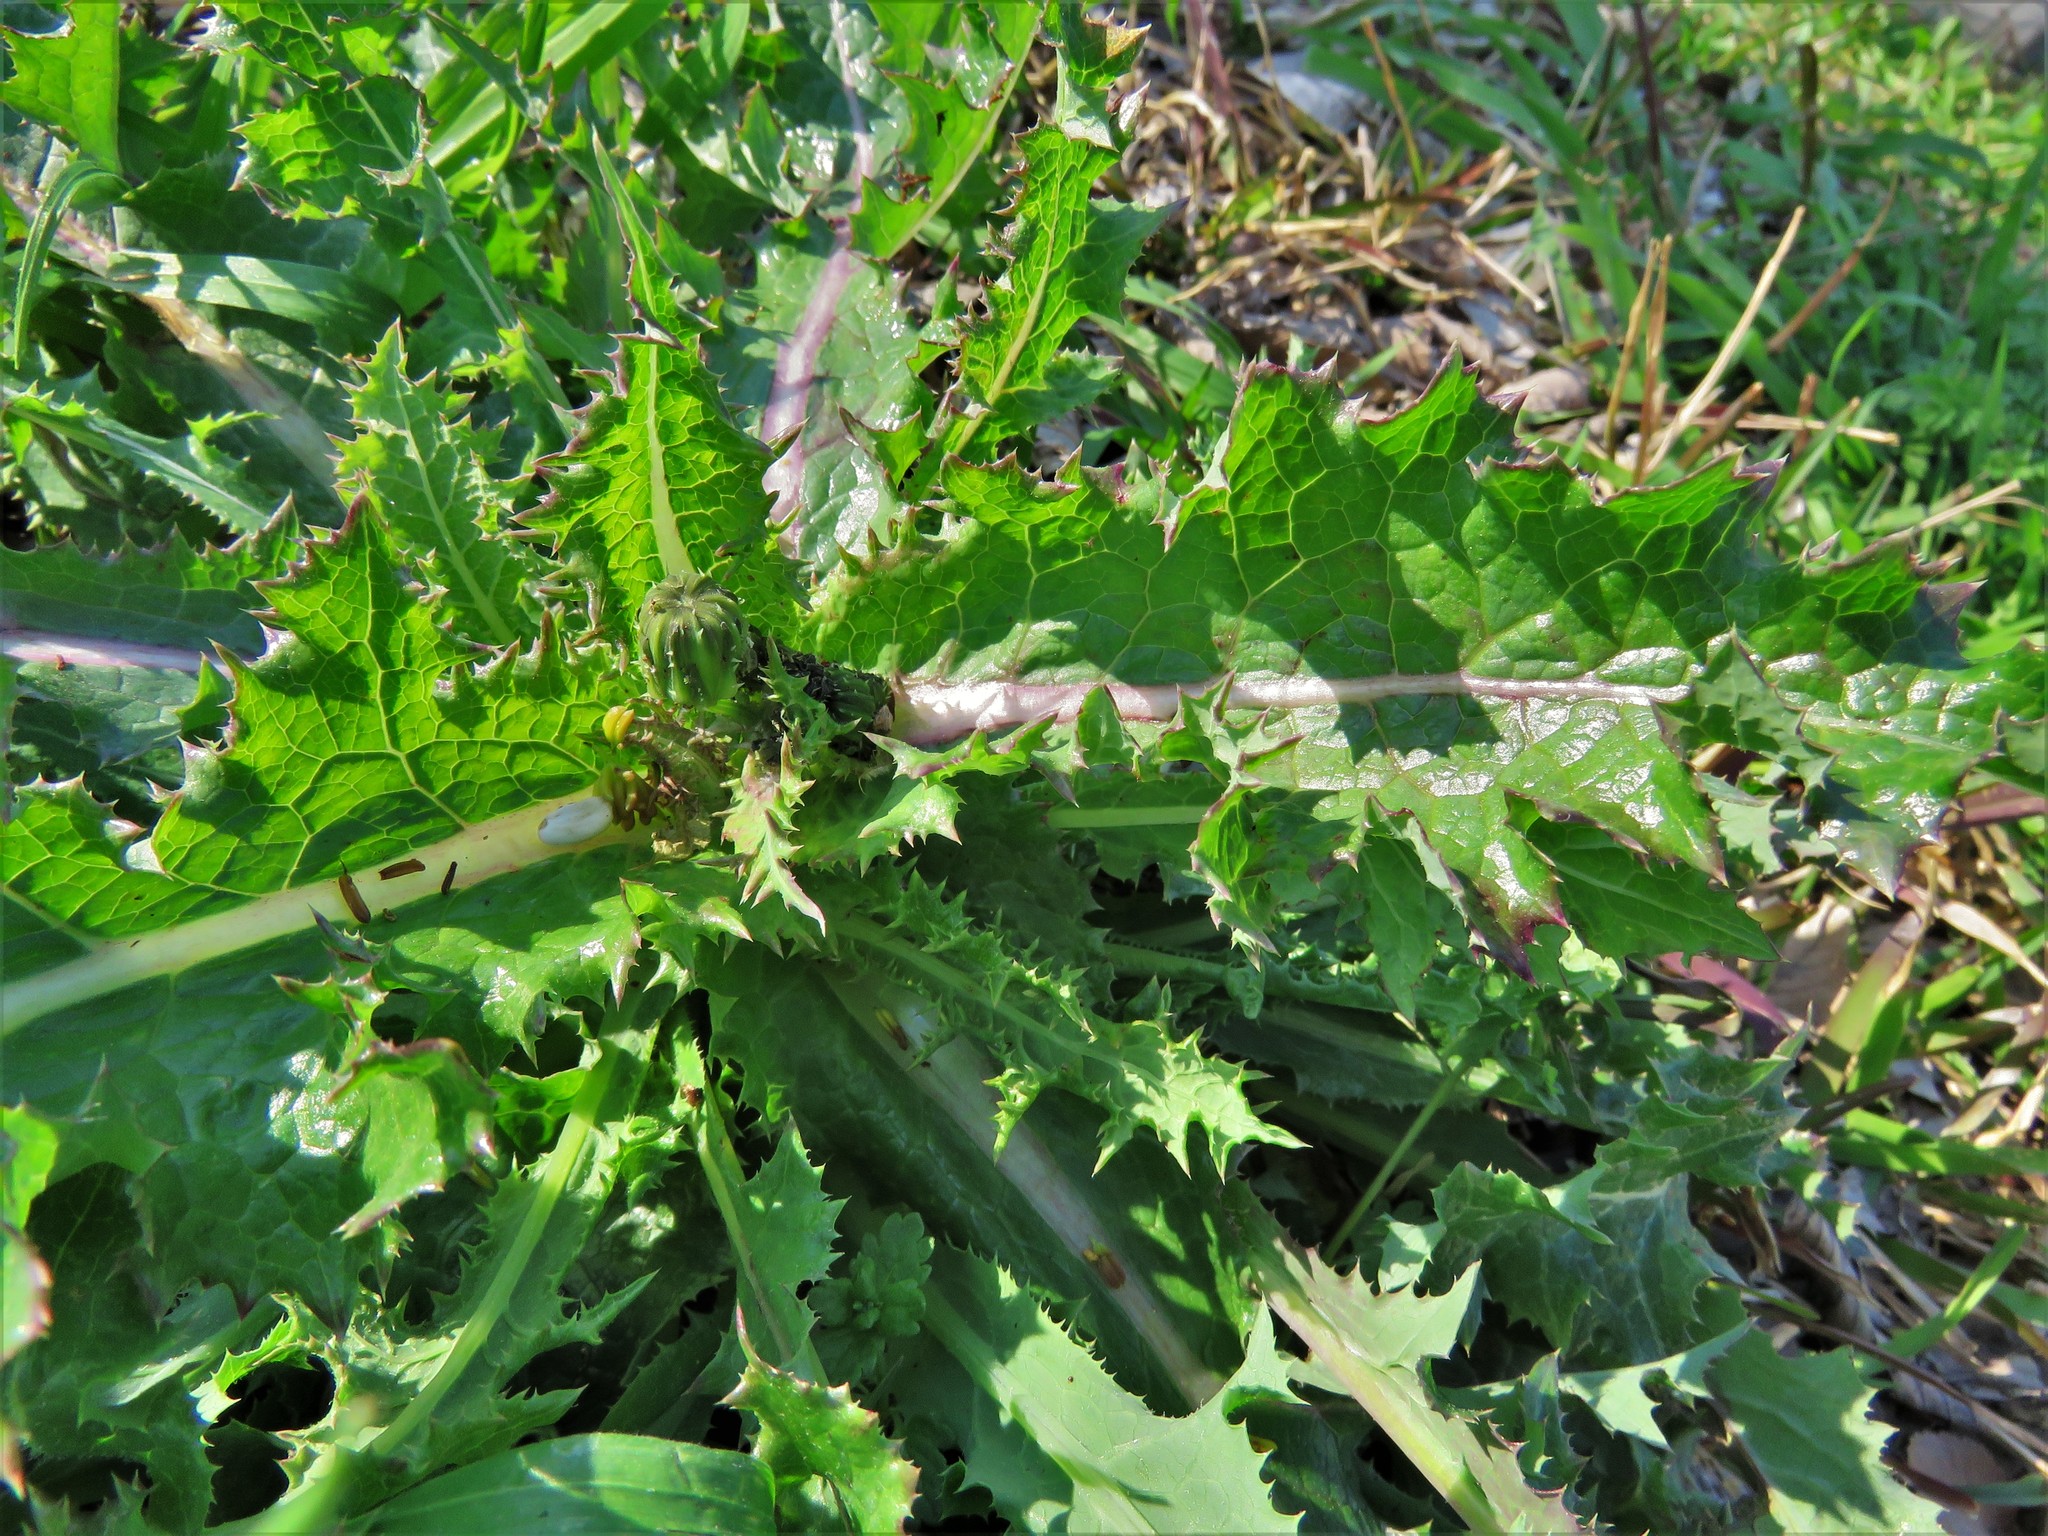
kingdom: Plantae
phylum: Tracheophyta
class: Magnoliopsida
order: Asterales
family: Asteraceae
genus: Sonchus
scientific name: Sonchus asper
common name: Prickly sow-thistle
